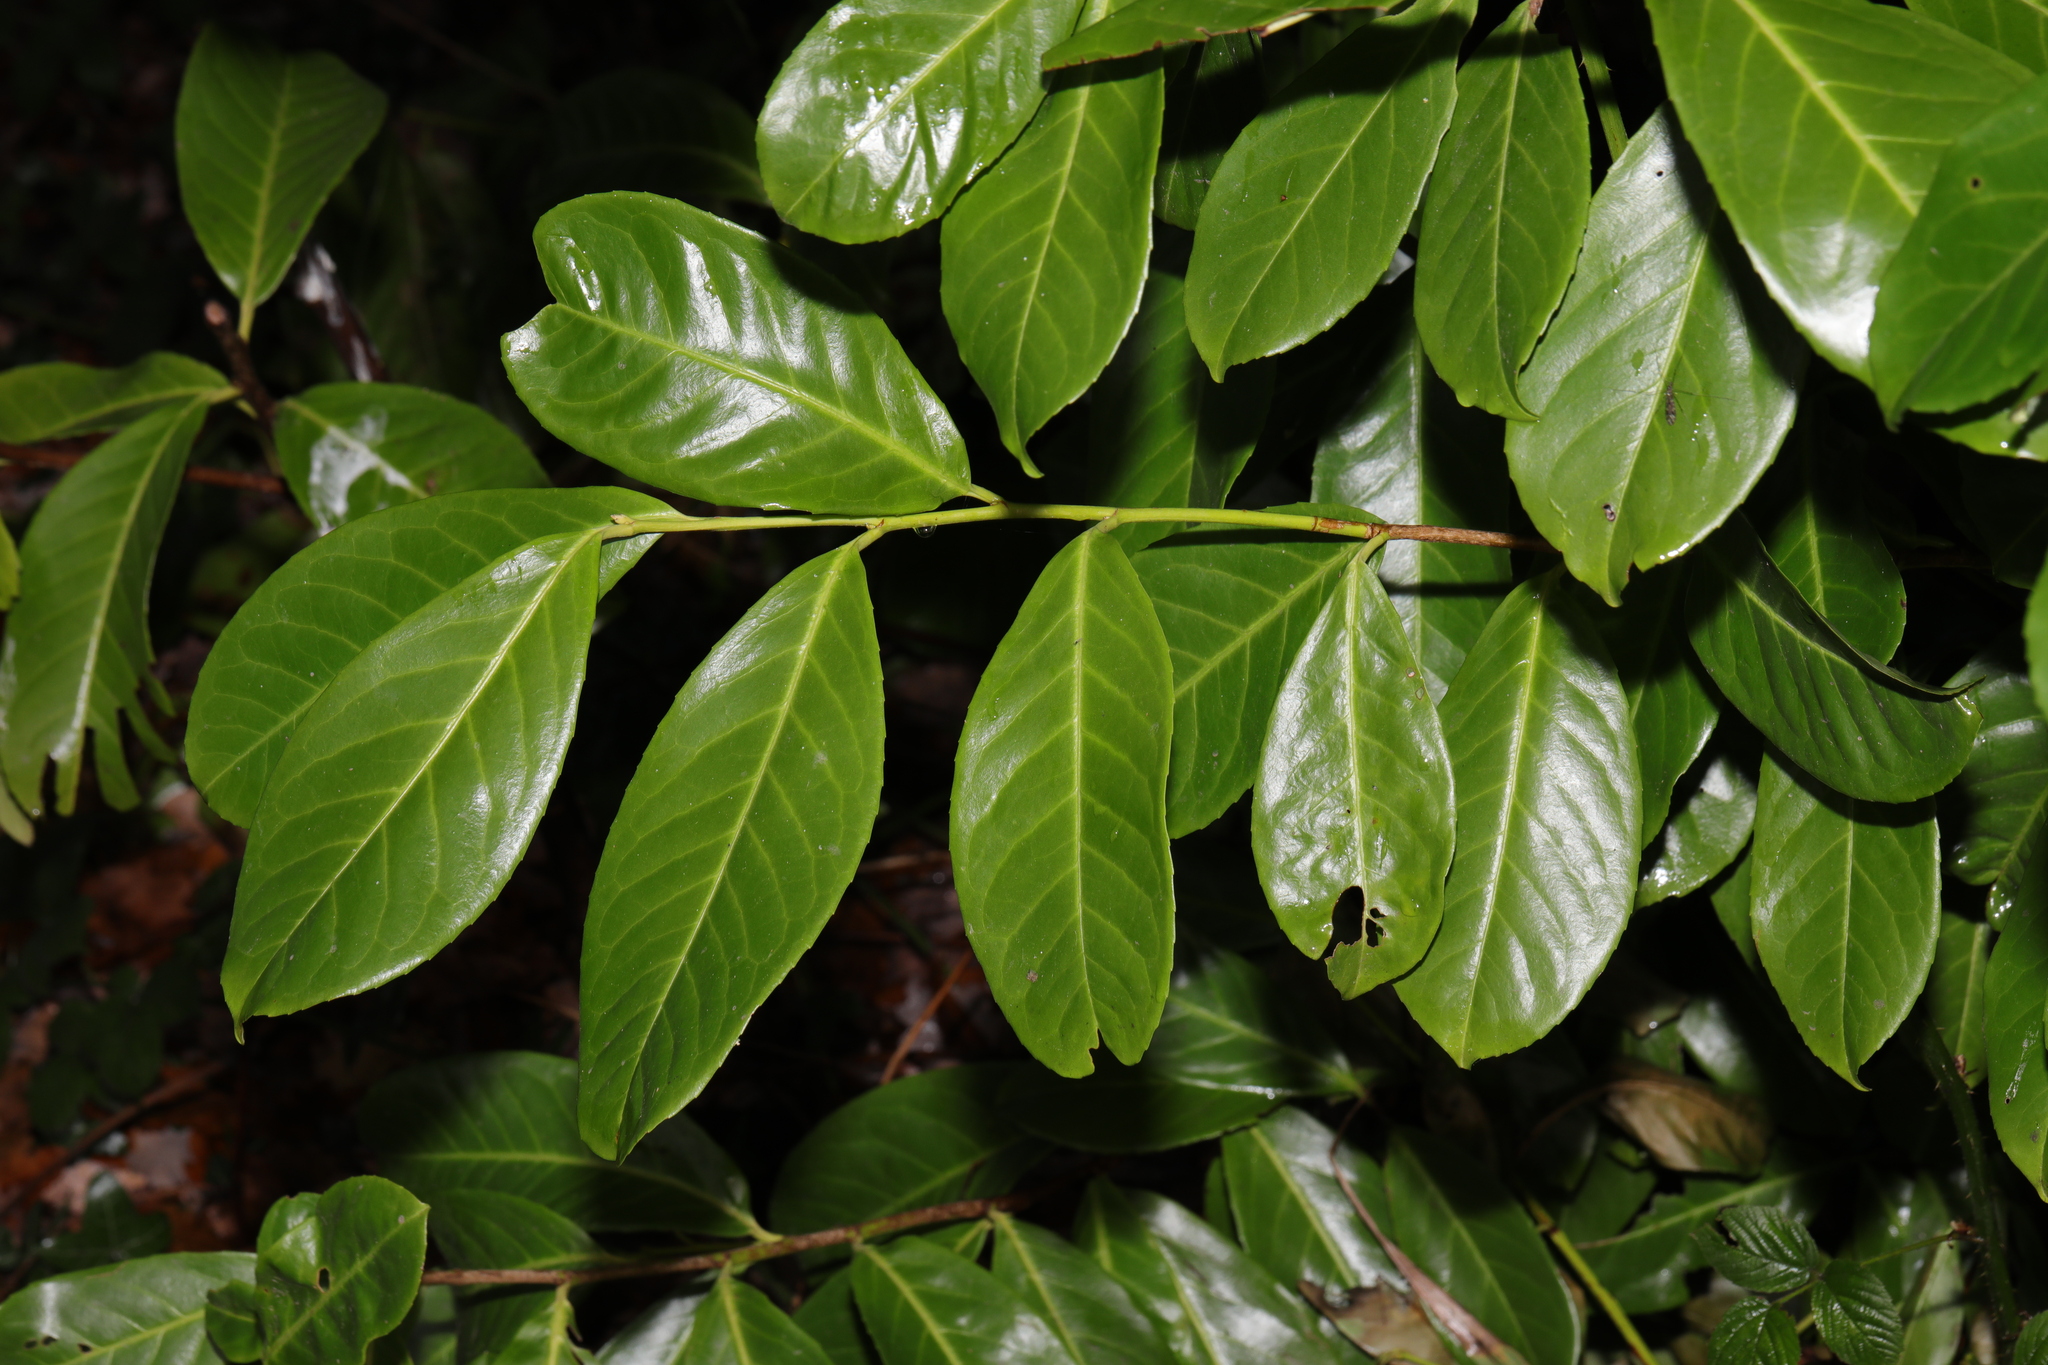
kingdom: Plantae
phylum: Tracheophyta
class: Magnoliopsida
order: Rosales
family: Rosaceae
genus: Prunus
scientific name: Prunus laurocerasus
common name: Cherry laurel
